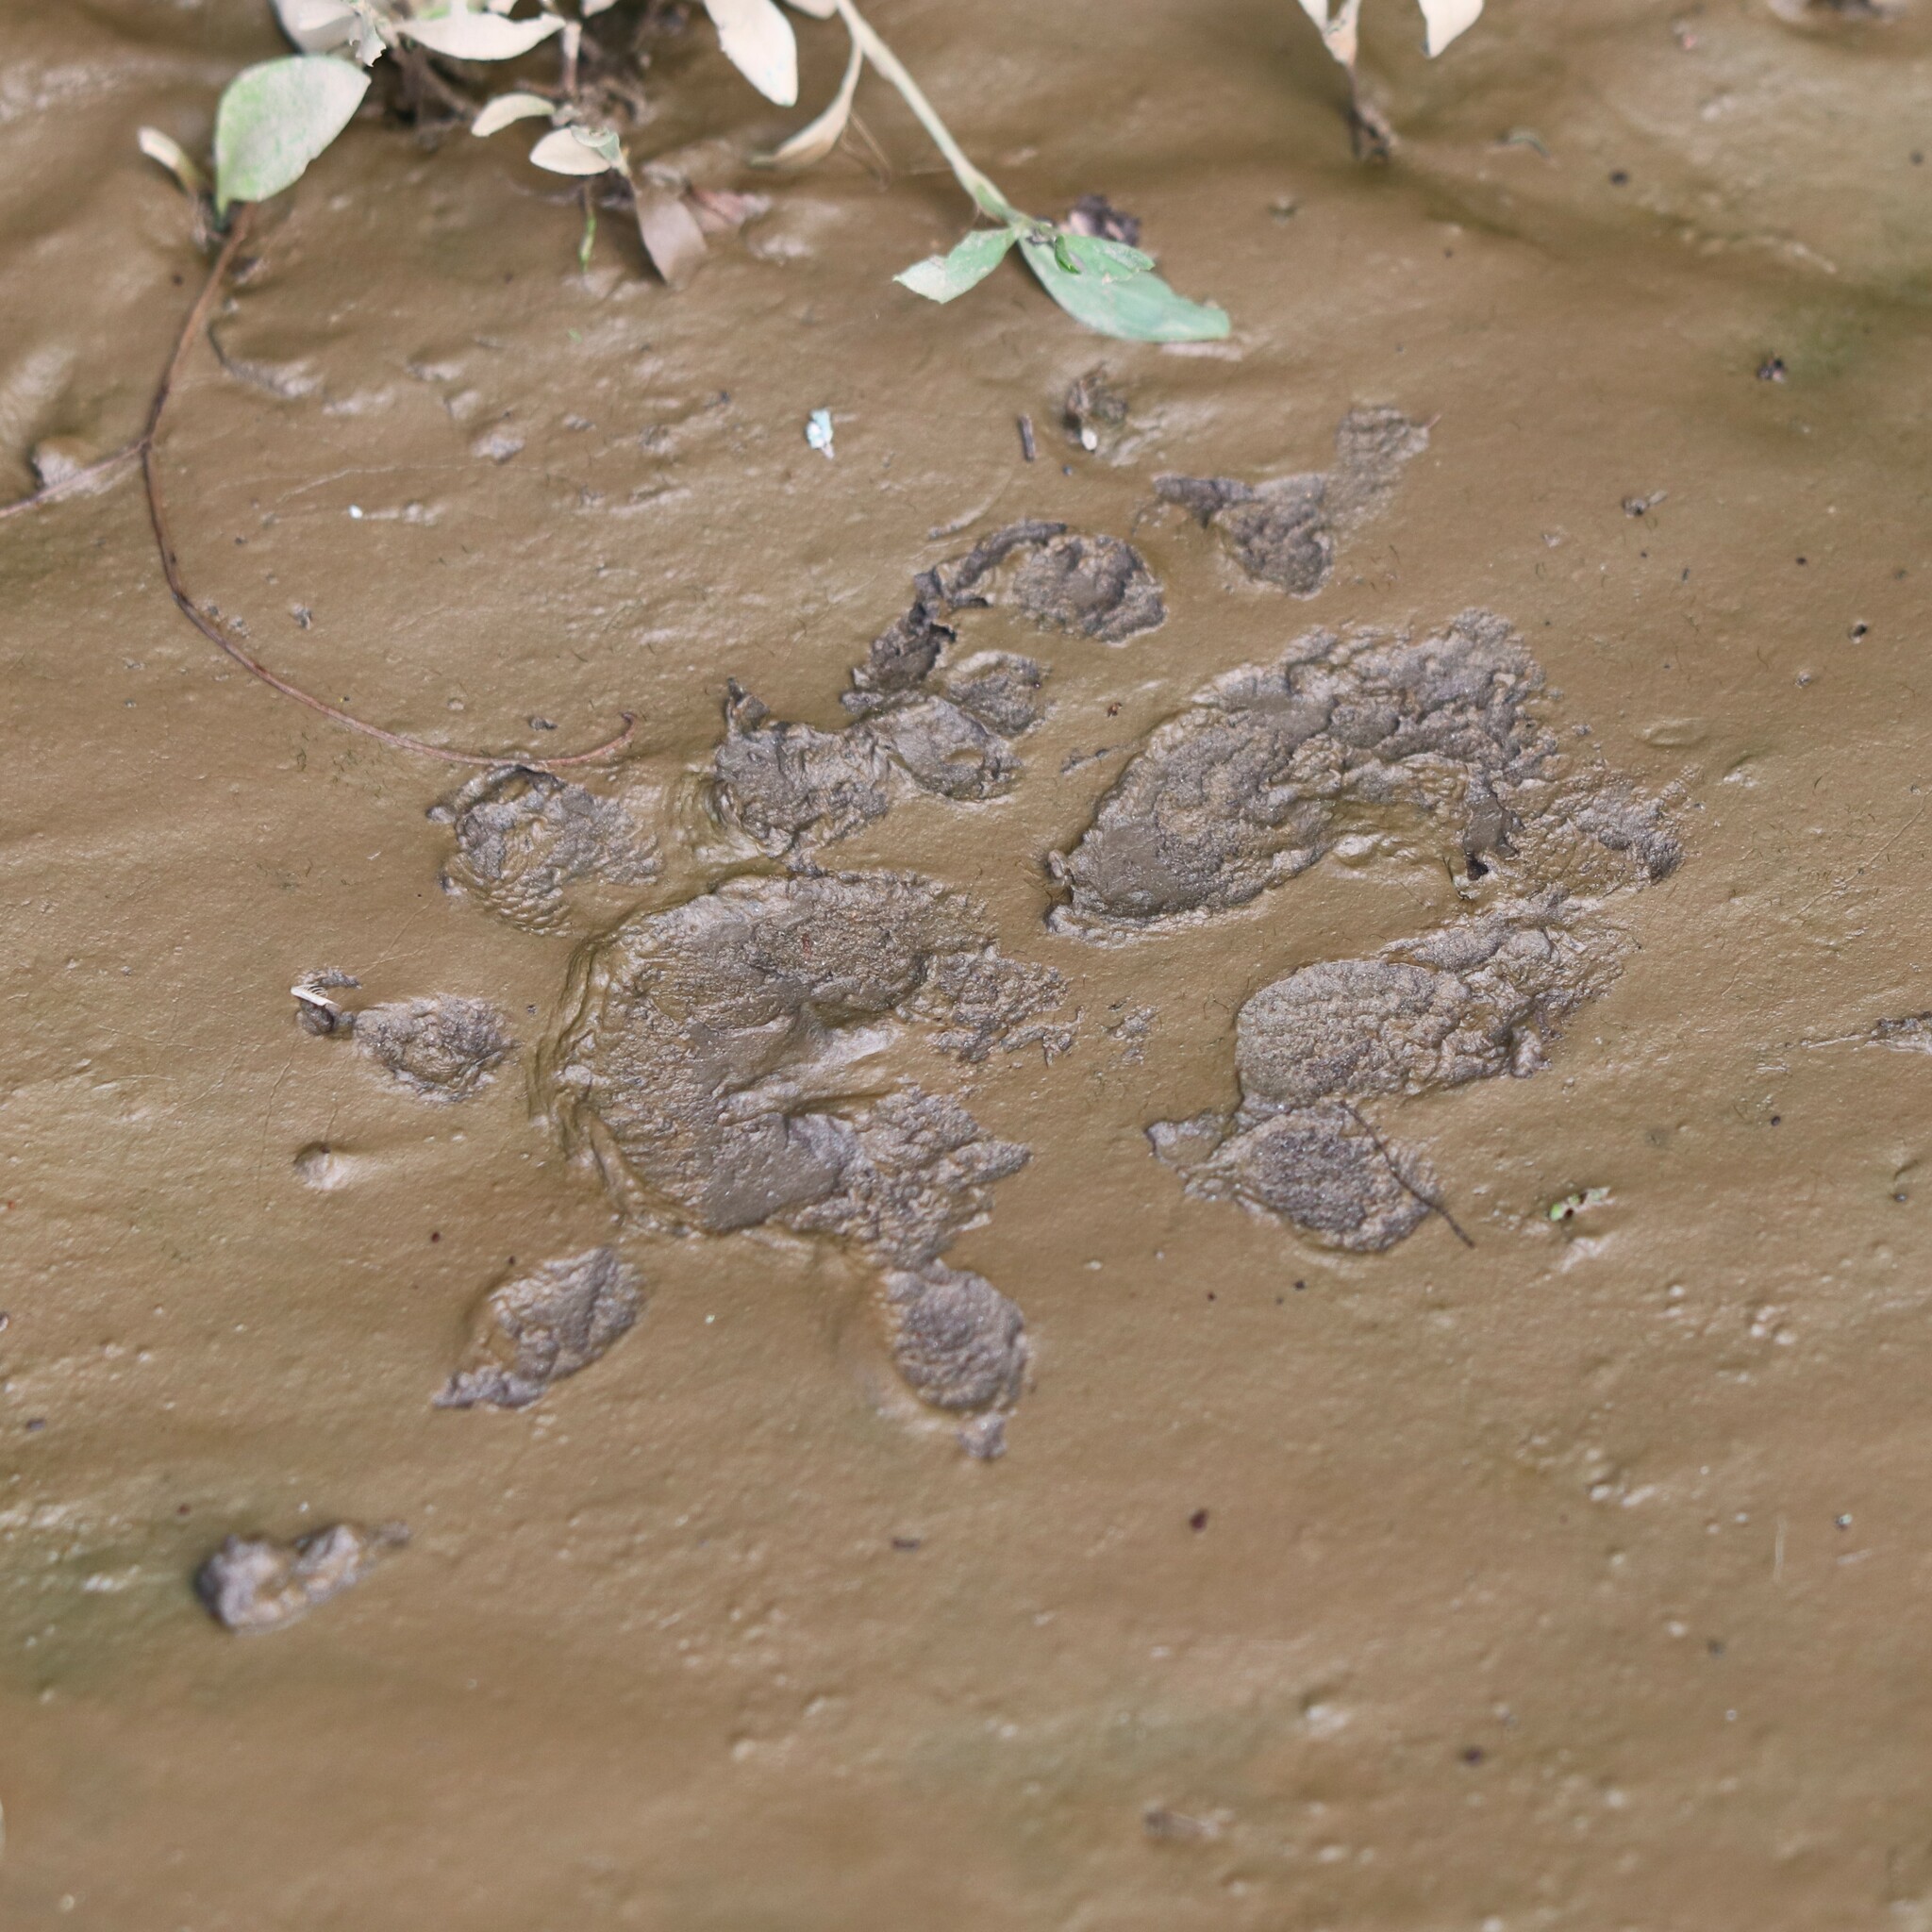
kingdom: Animalia
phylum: Chordata
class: Mammalia
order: Didelphimorphia
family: Didelphidae
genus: Didelphis
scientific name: Didelphis virginiana
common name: Virginia opossum
